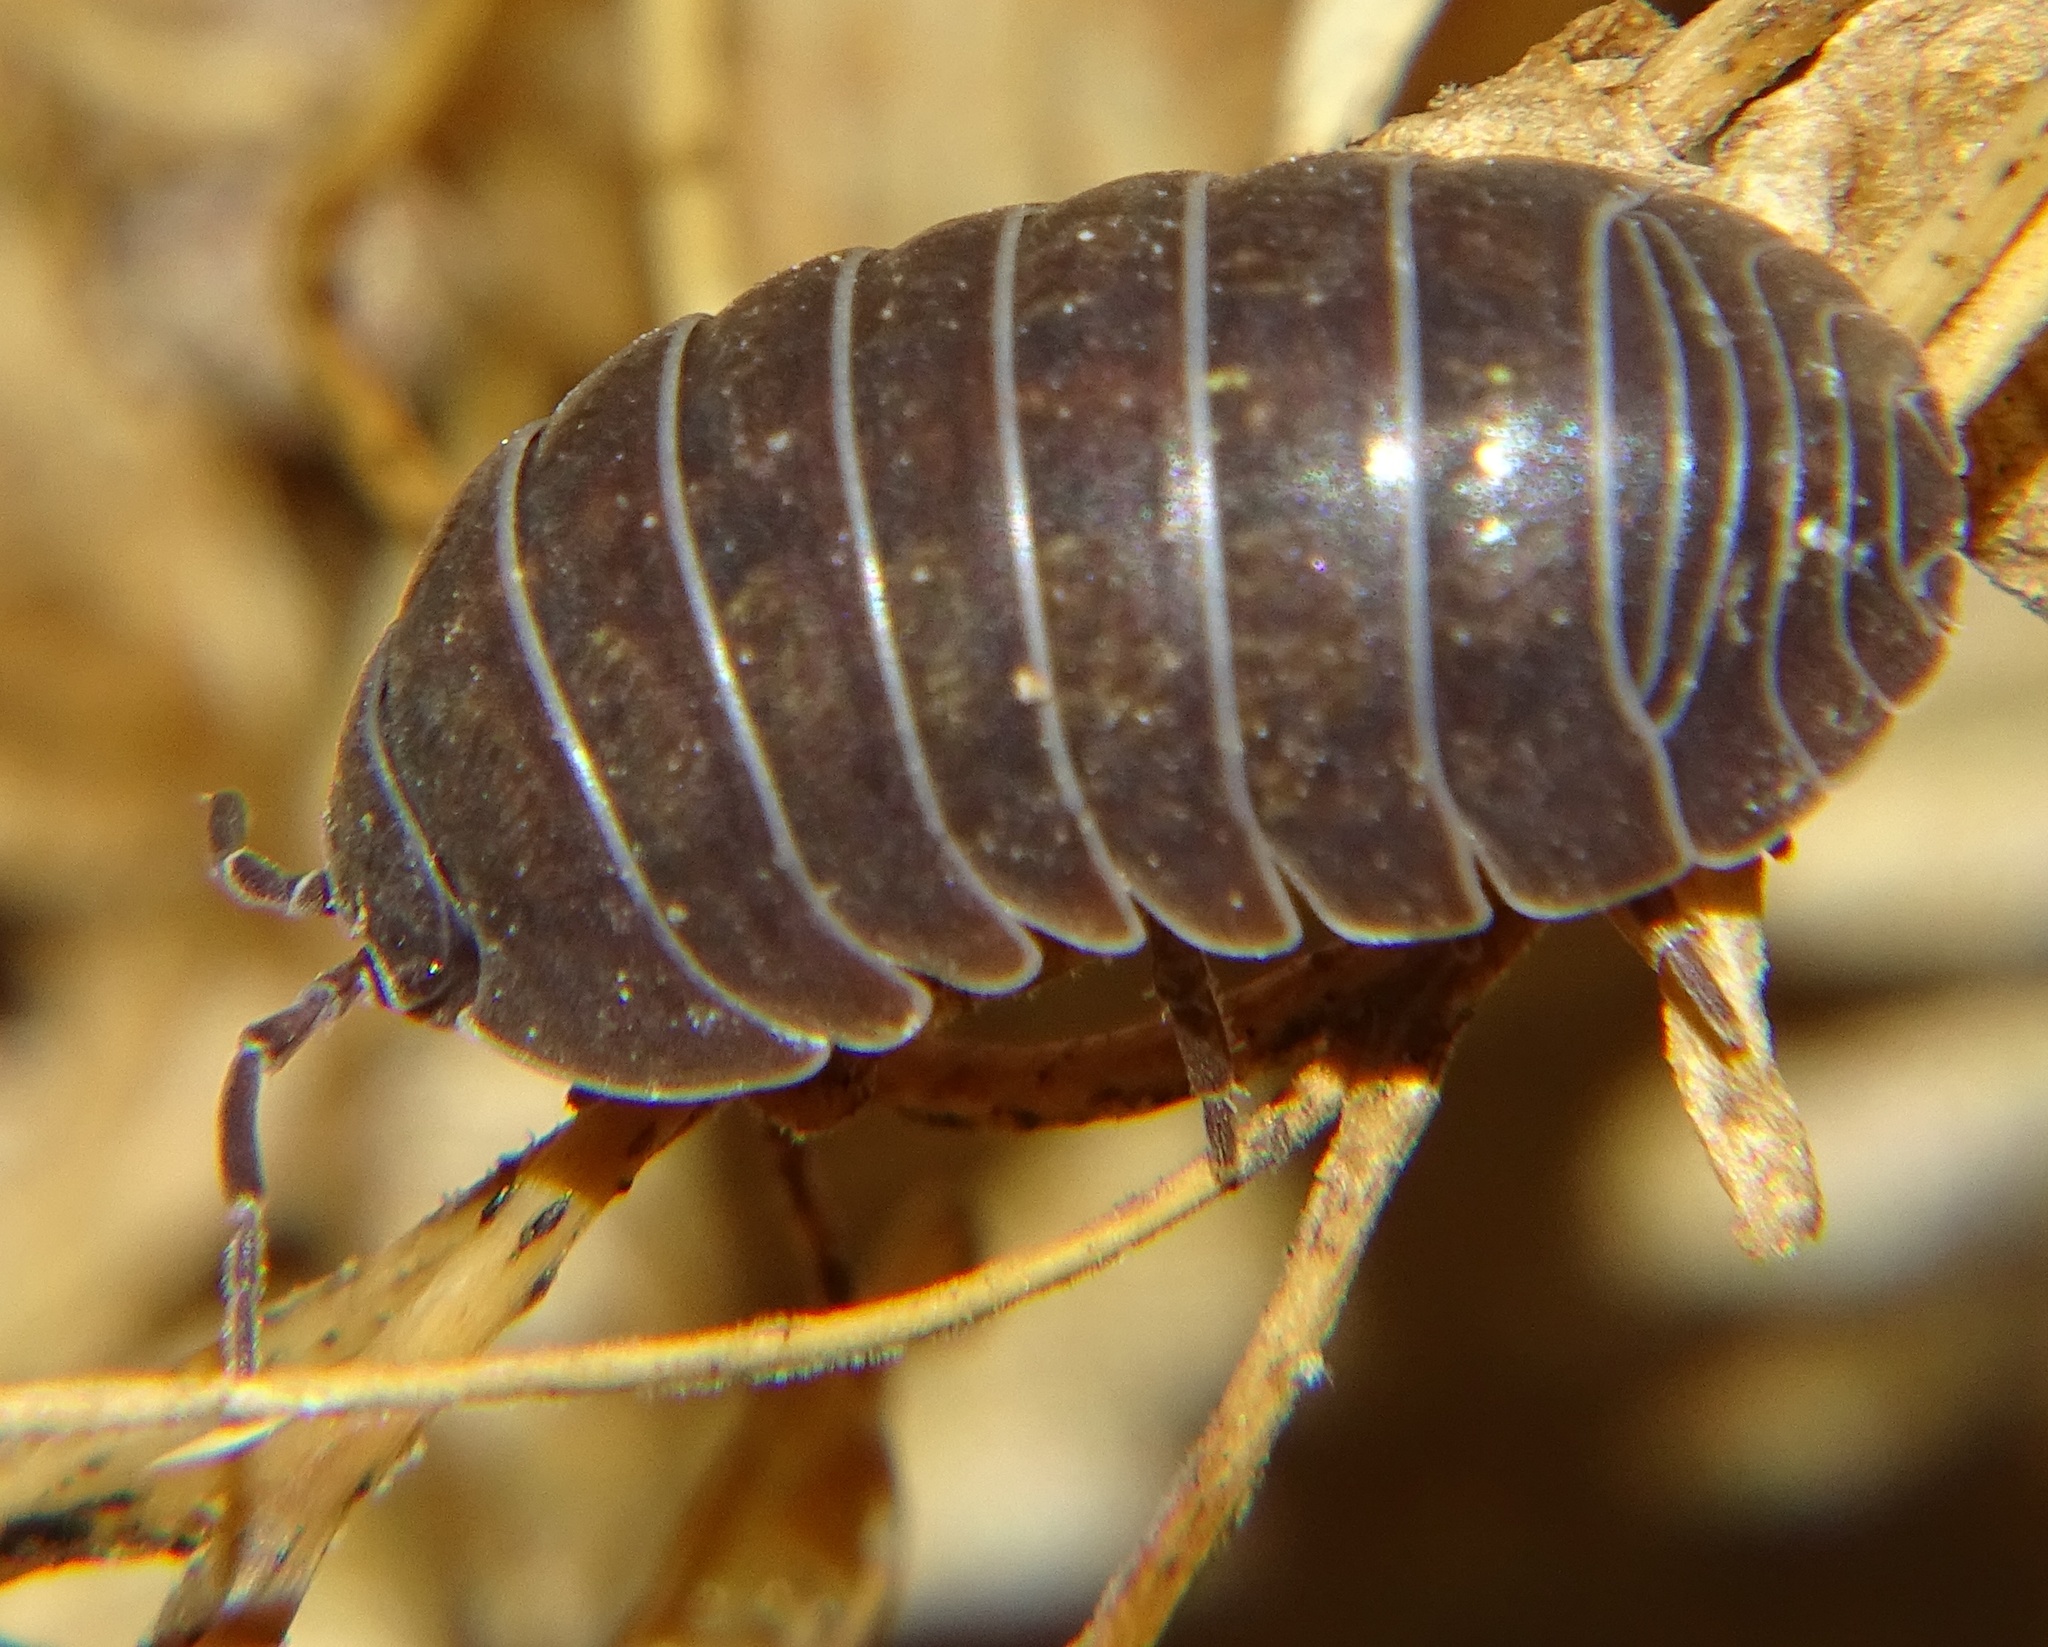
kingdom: Animalia
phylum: Arthropoda
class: Malacostraca
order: Isopoda
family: Armadillidiidae
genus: Armadillidium
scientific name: Armadillidium vulgare
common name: Common pill woodlouse
